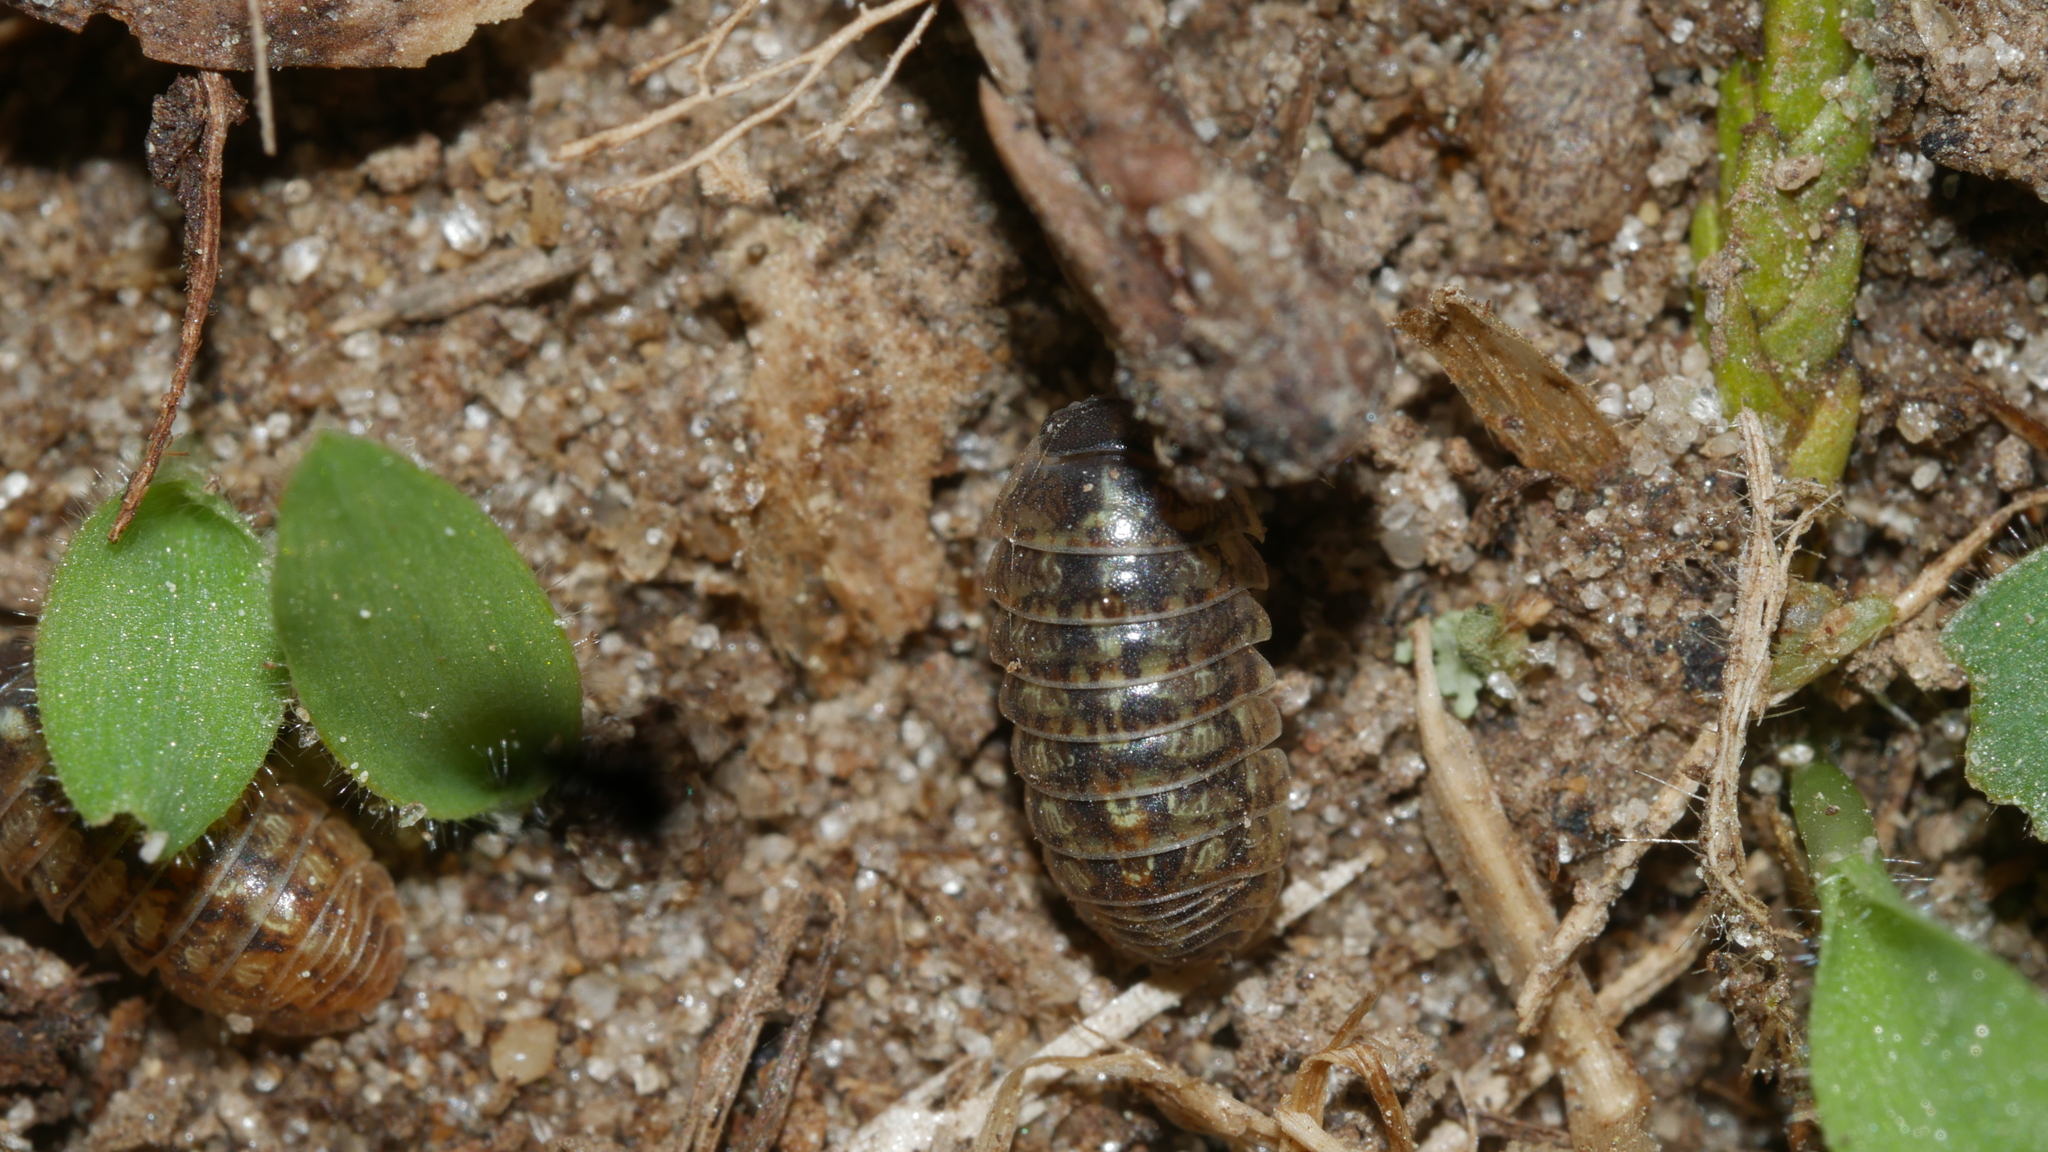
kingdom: Animalia
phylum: Arthropoda
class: Malacostraca
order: Isopoda
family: Armadillidiidae
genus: Armadillidium
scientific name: Armadillidium vulgare
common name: Common pill woodlouse
